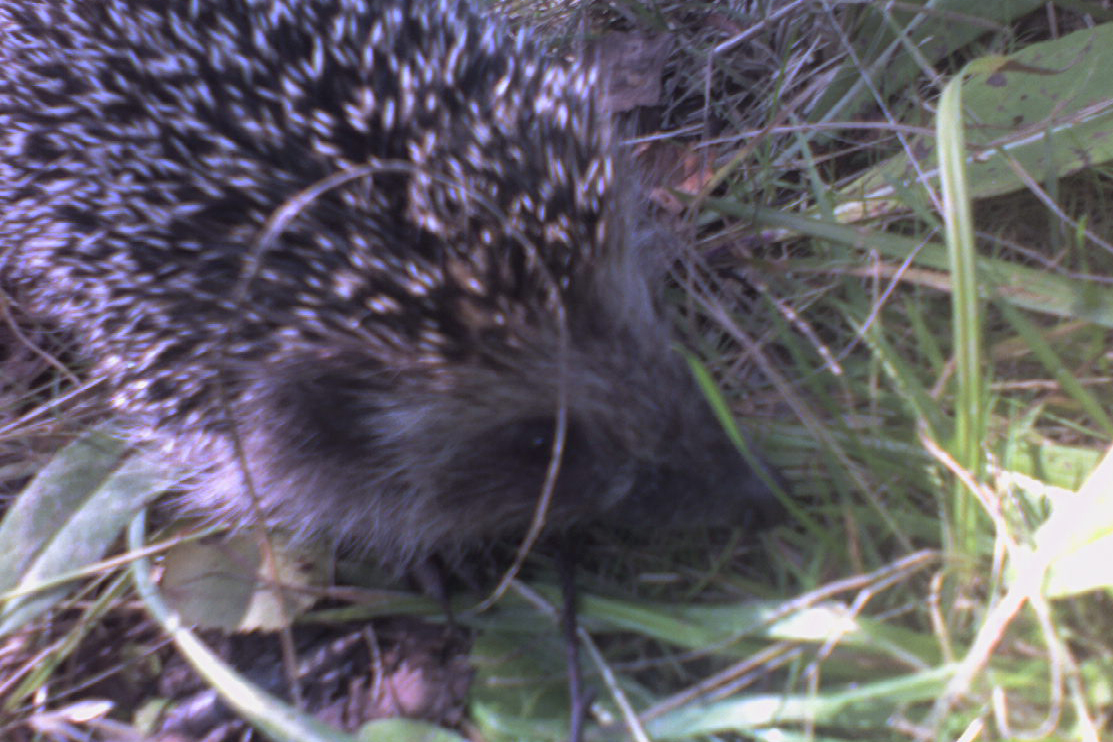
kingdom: Animalia
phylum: Chordata
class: Mammalia
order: Erinaceomorpha
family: Erinaceidae
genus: Erinaceus
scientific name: Erinaceus europaeus
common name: West european hedgehog
